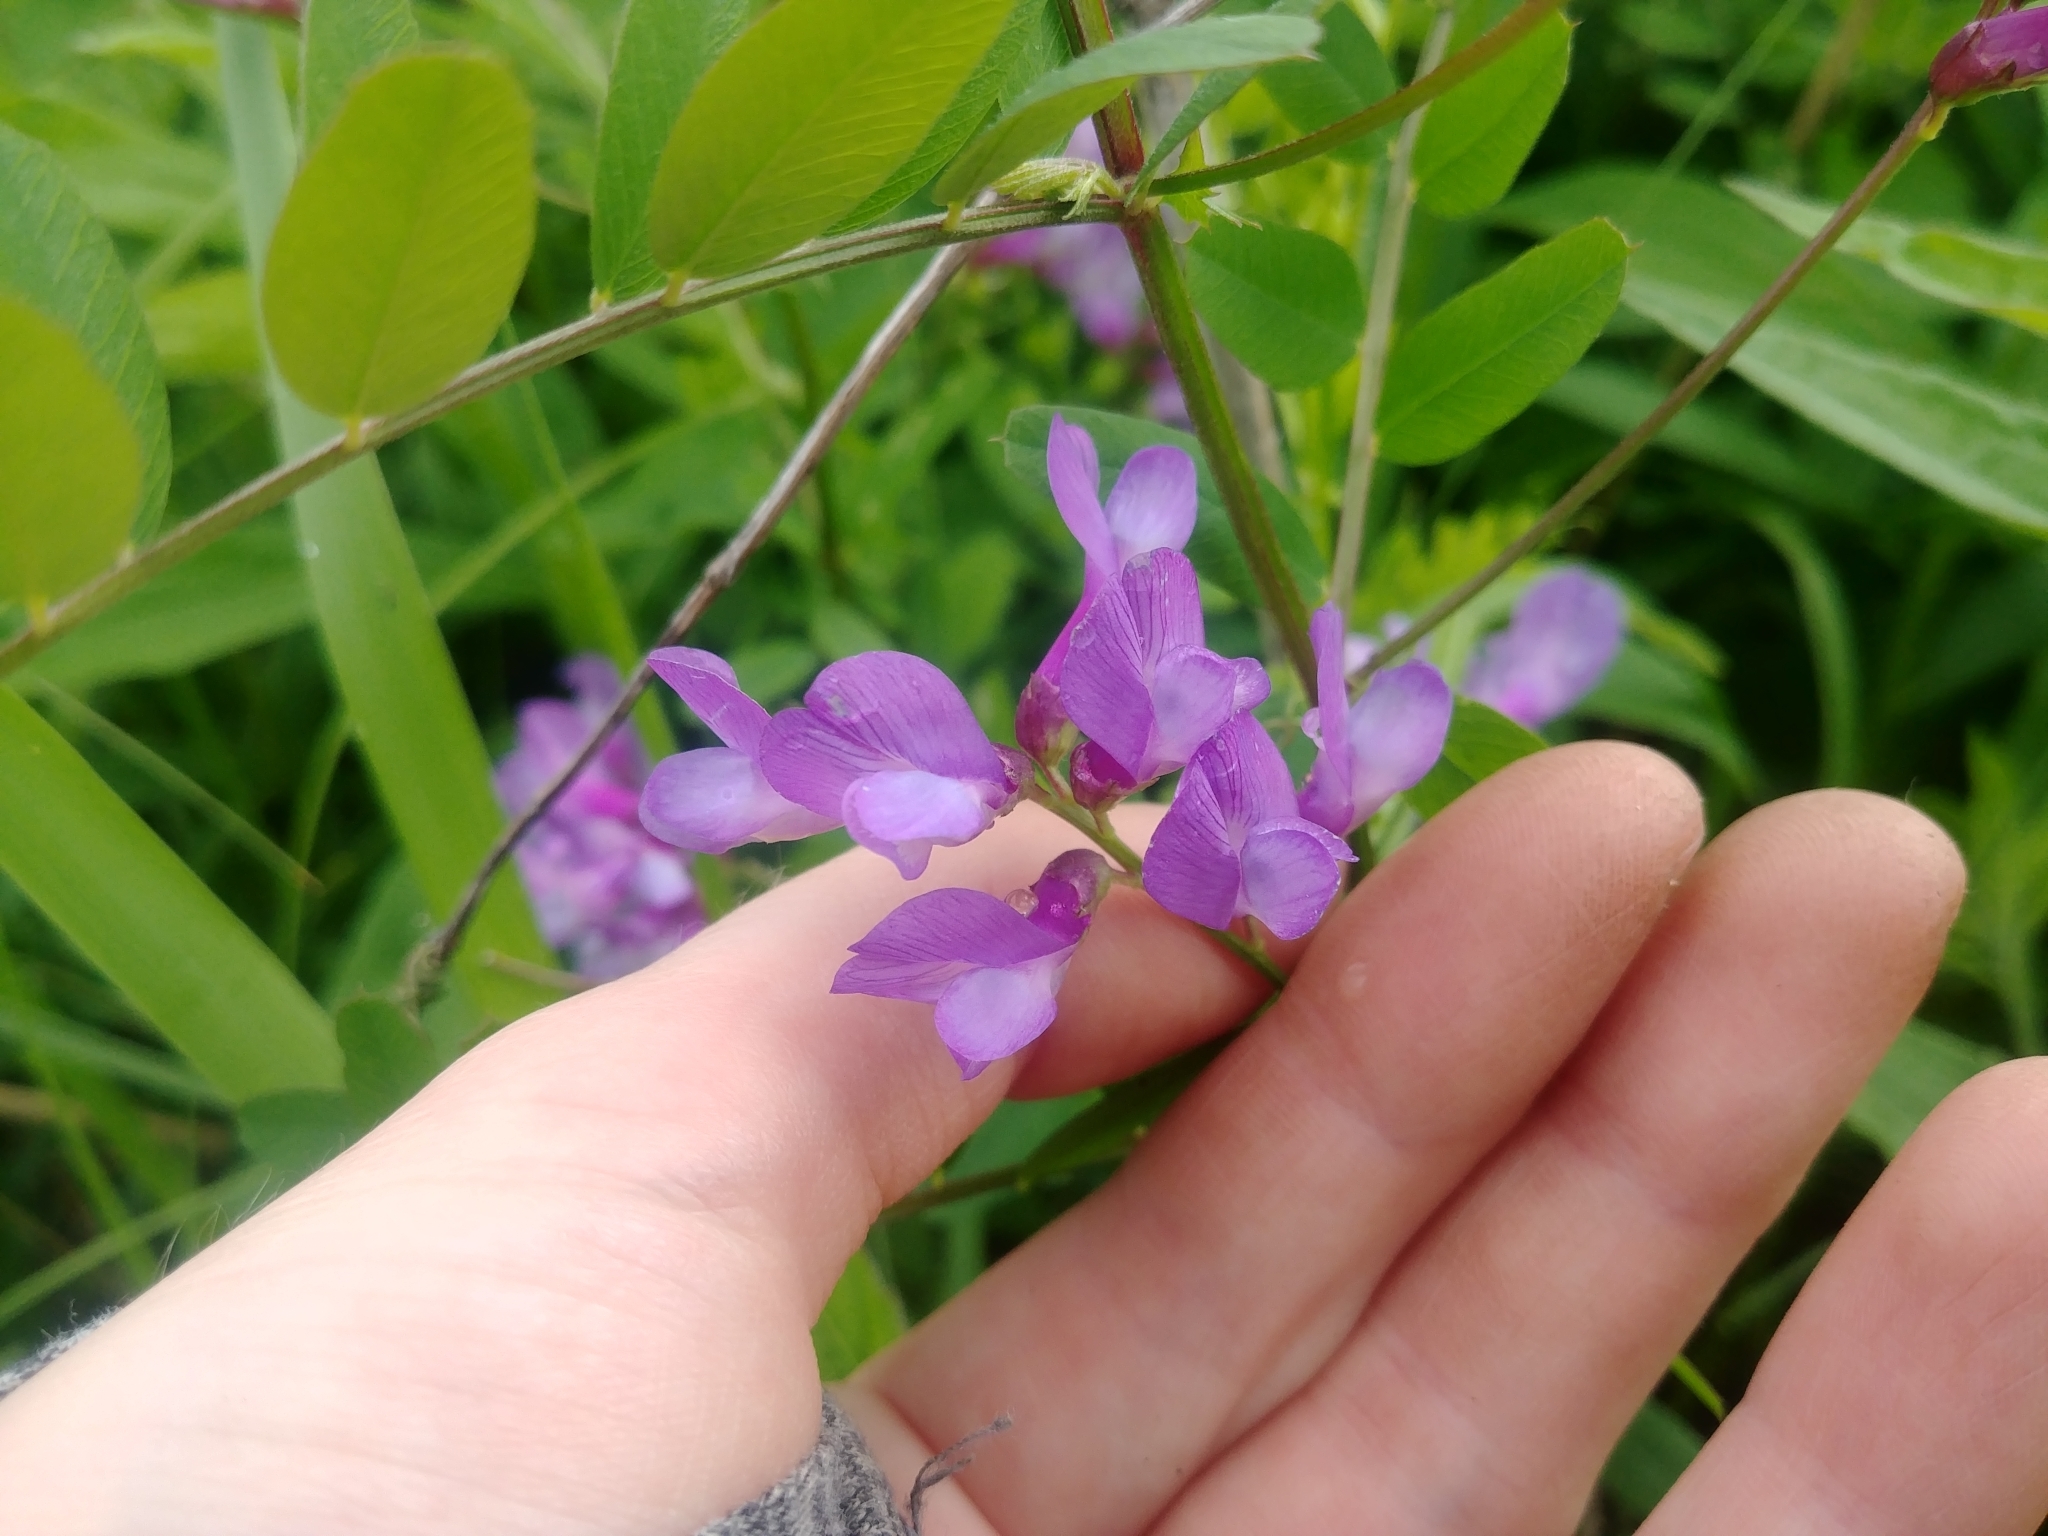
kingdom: Plantae
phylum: Tracheophyta
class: Magnoliopsida
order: Fabales
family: Fabaceae
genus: Vicia
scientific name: Vicia americana
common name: American vetch
